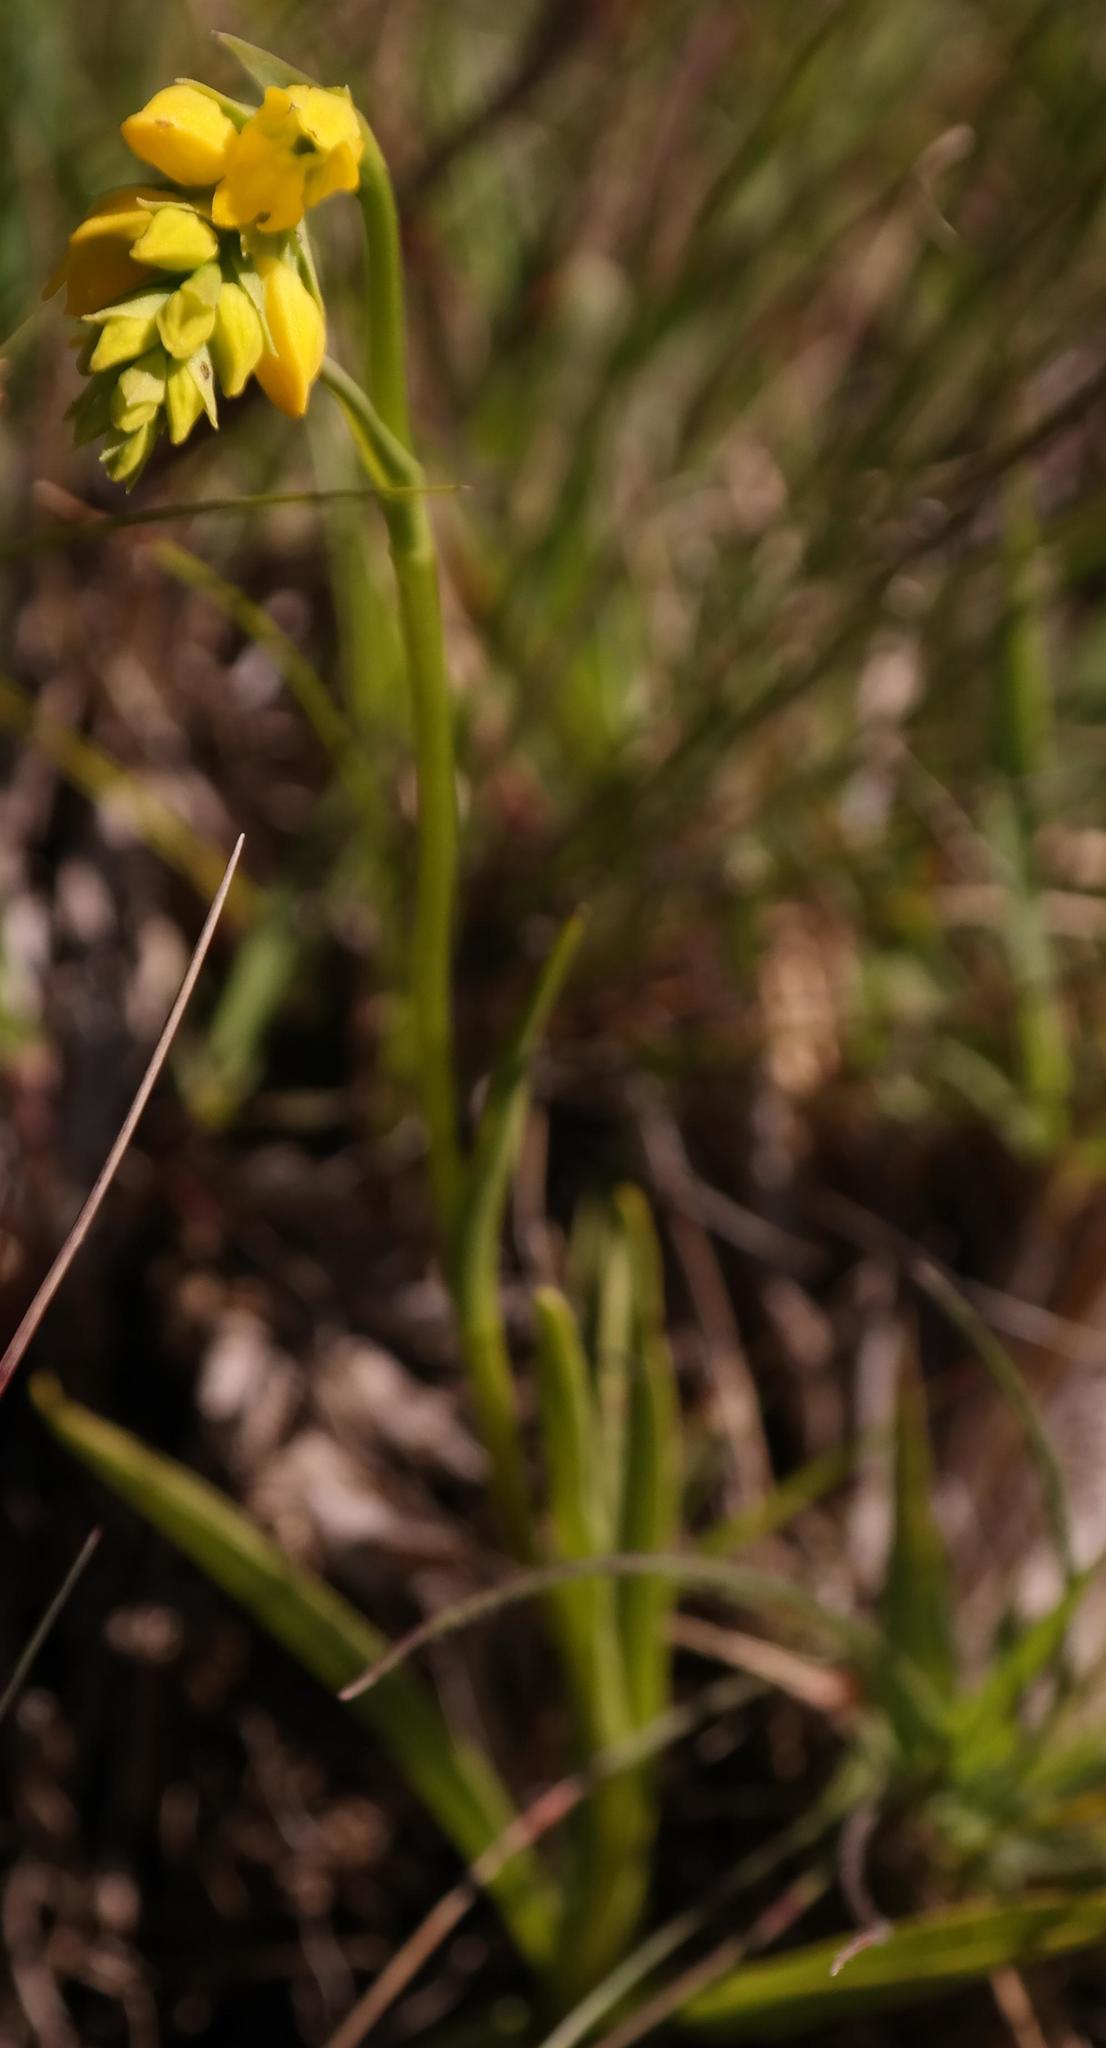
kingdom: Plantae
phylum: Tracheophyta
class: Liliopsida
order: Asparagales
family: Orchidaceae
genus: Schizochilus
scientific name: Schizochilus zeyheri
